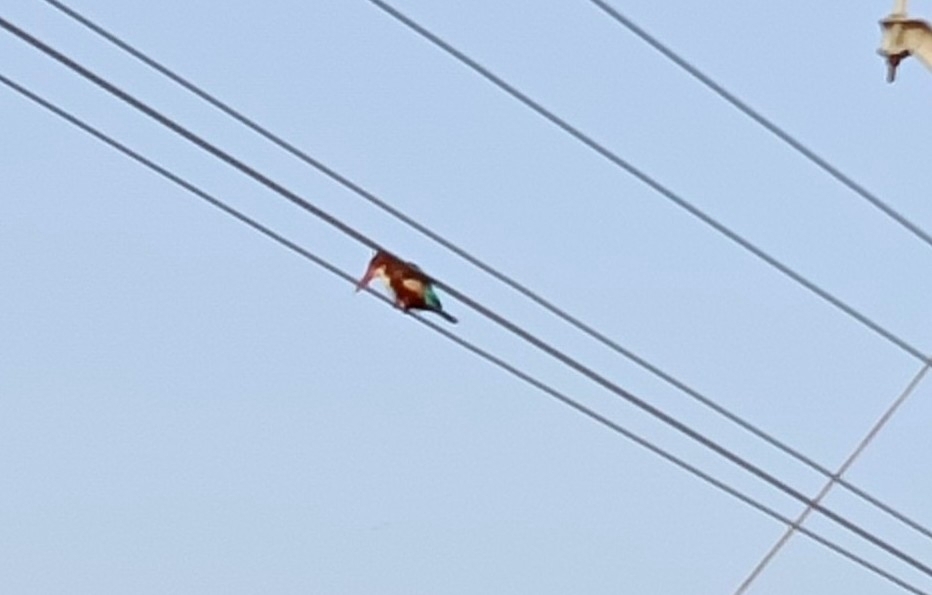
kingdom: Animalia
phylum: Chordata
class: Aves
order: Coraciiformes
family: Alcedinidae
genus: Halcyon
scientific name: Halcyon smyrnensis
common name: White-throated kingfisher
